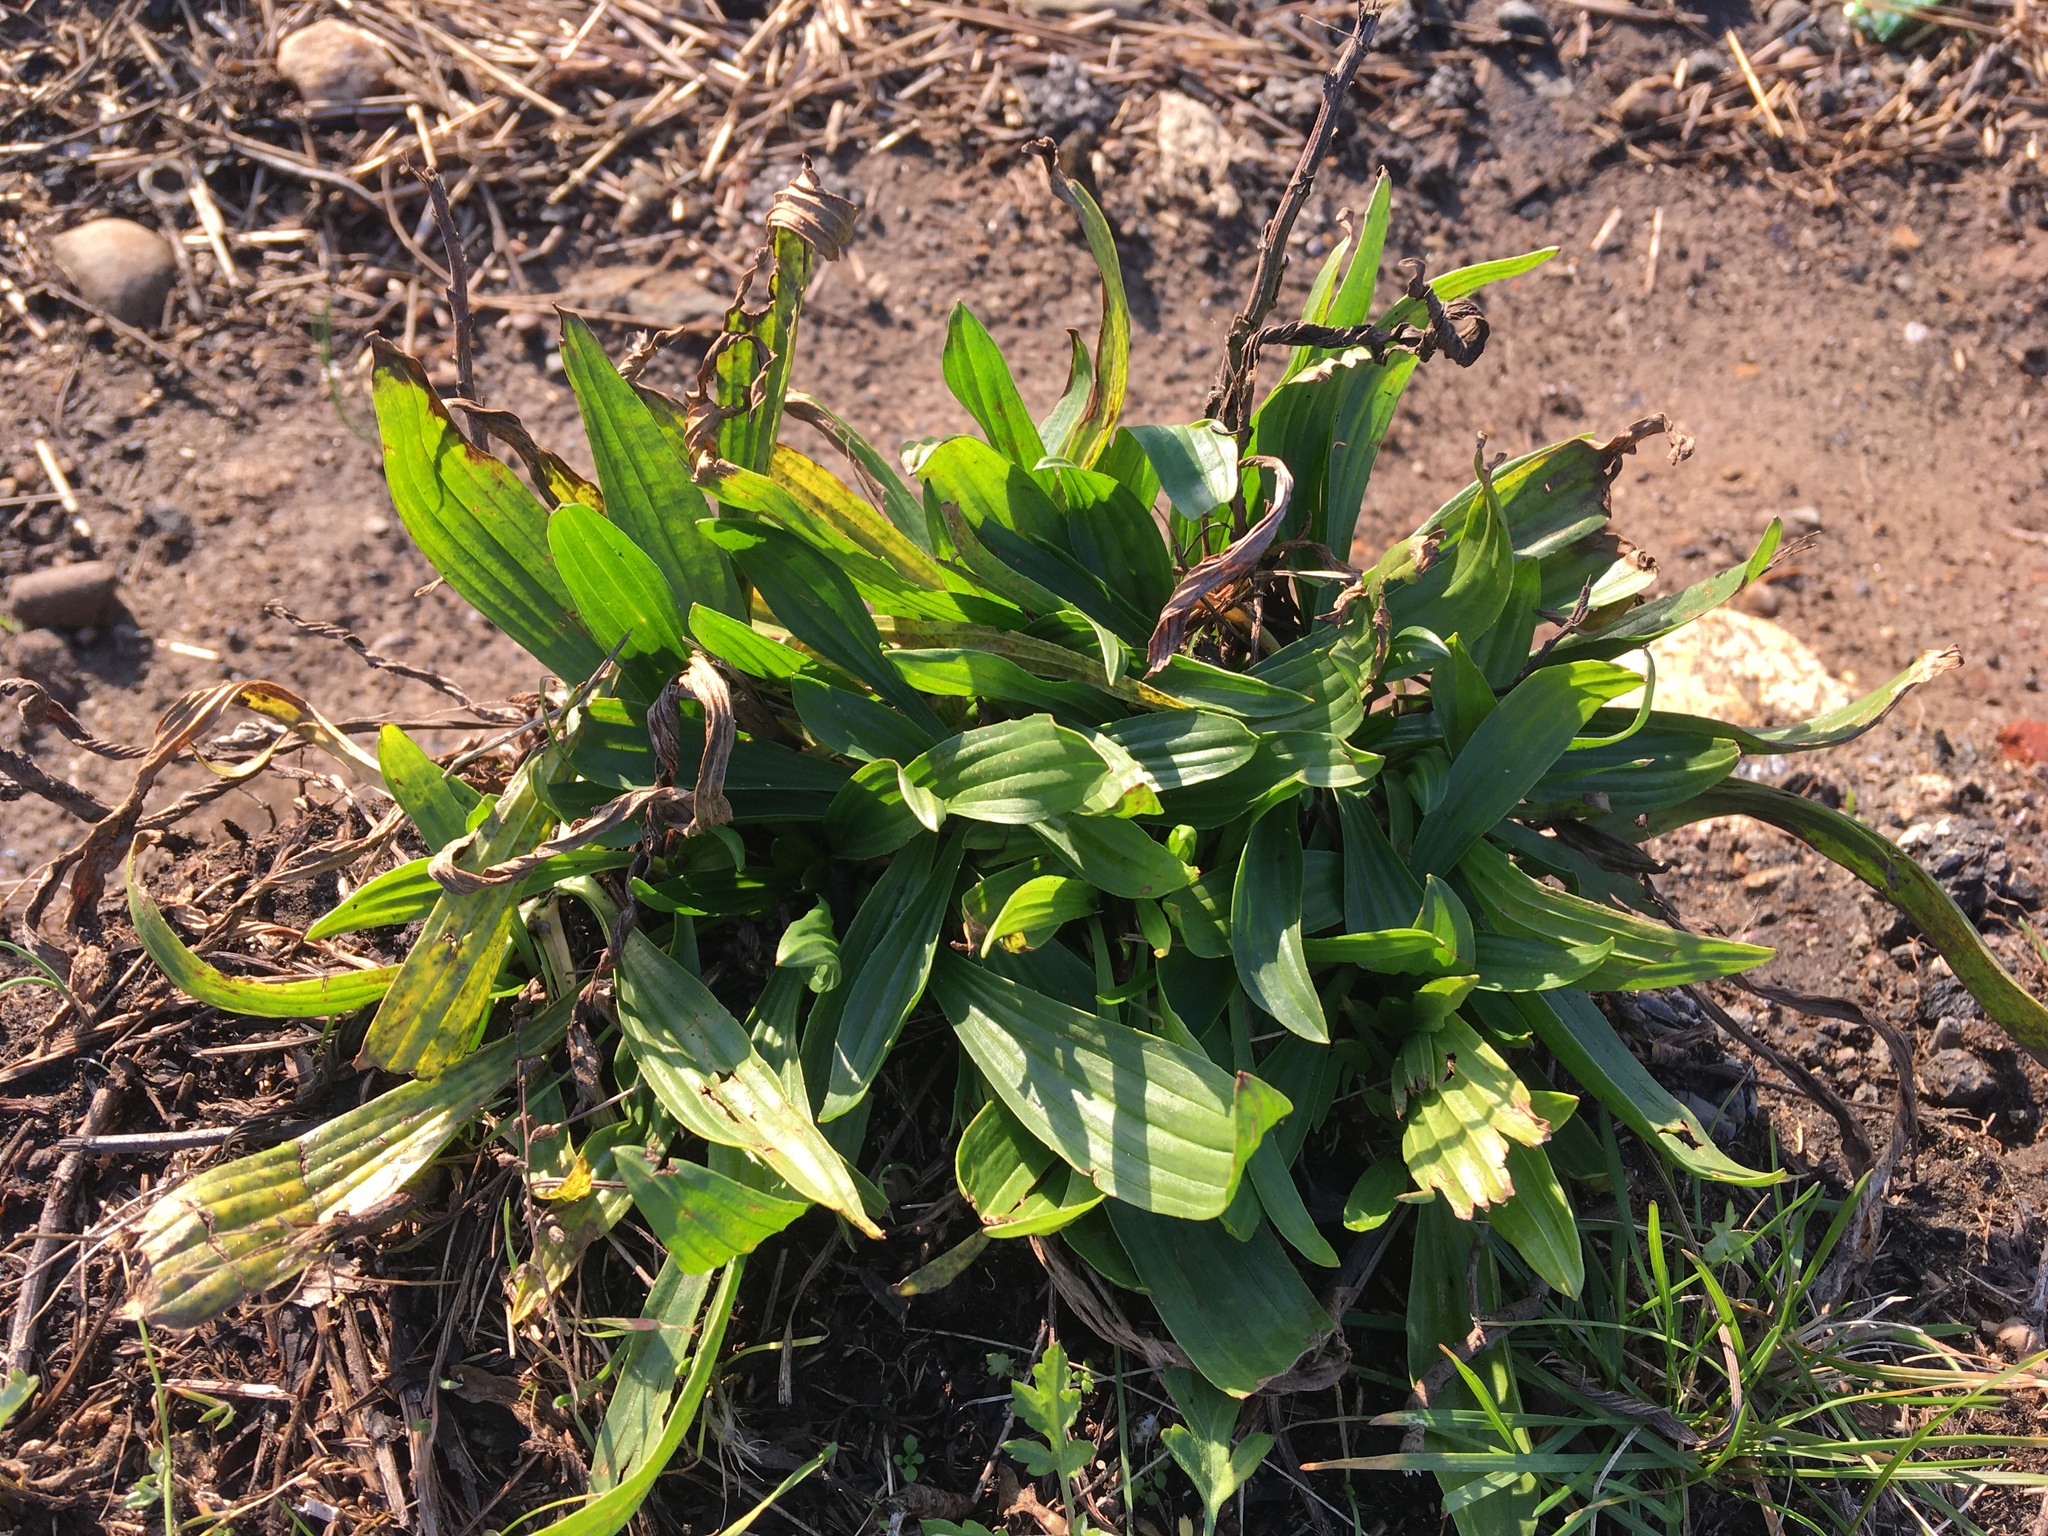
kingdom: Plantae
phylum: Tracheophyta
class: Magnoliopsida
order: Lamiales
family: Plantaginaceae
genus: Plantago
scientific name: Plantago lanceolata
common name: Ribwort plantain
